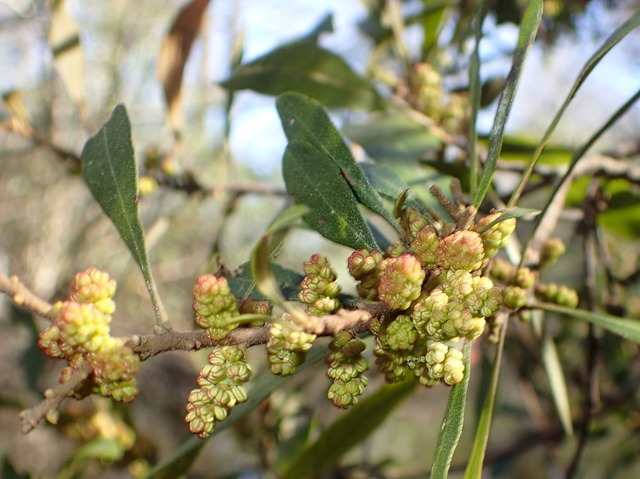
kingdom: Plantae
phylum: Tracheophyta
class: Magnoliopsida
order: Fagales
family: Myricaceae
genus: Morella
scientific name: Morella cerifera
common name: Wax myrtle
